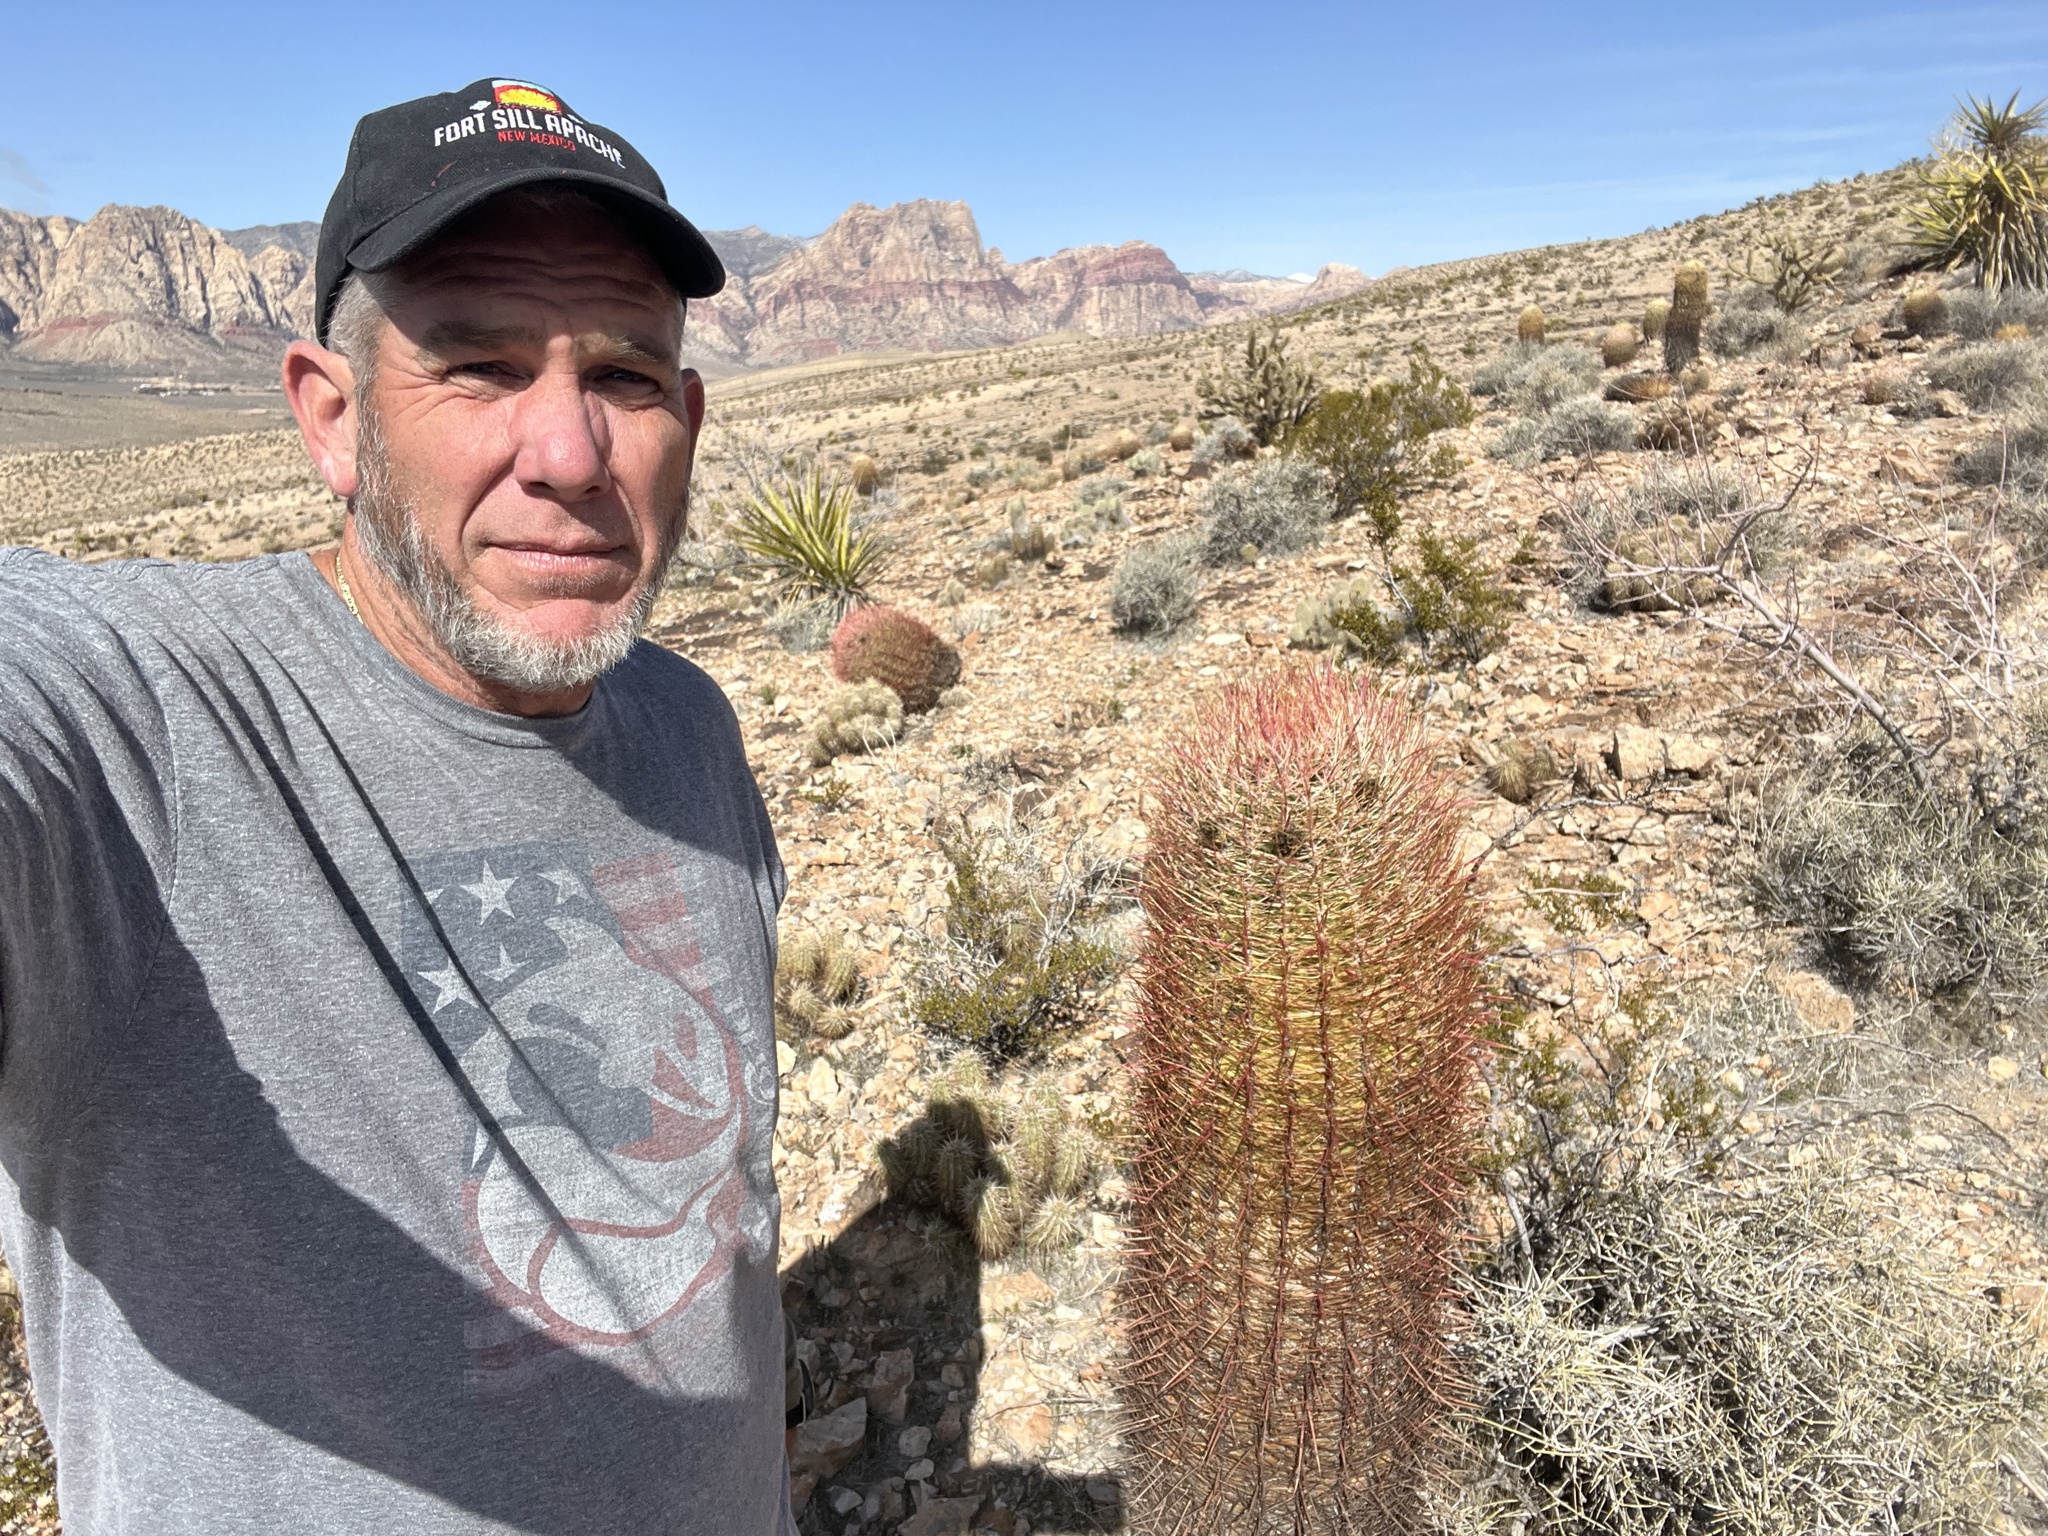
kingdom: Plantae
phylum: Tracheophyta
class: Magnoliopsida
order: Caryophyllales
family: Cactaceae
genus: Ferocactus
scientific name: Ferocactus cylindraceus
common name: California barrel cactus
